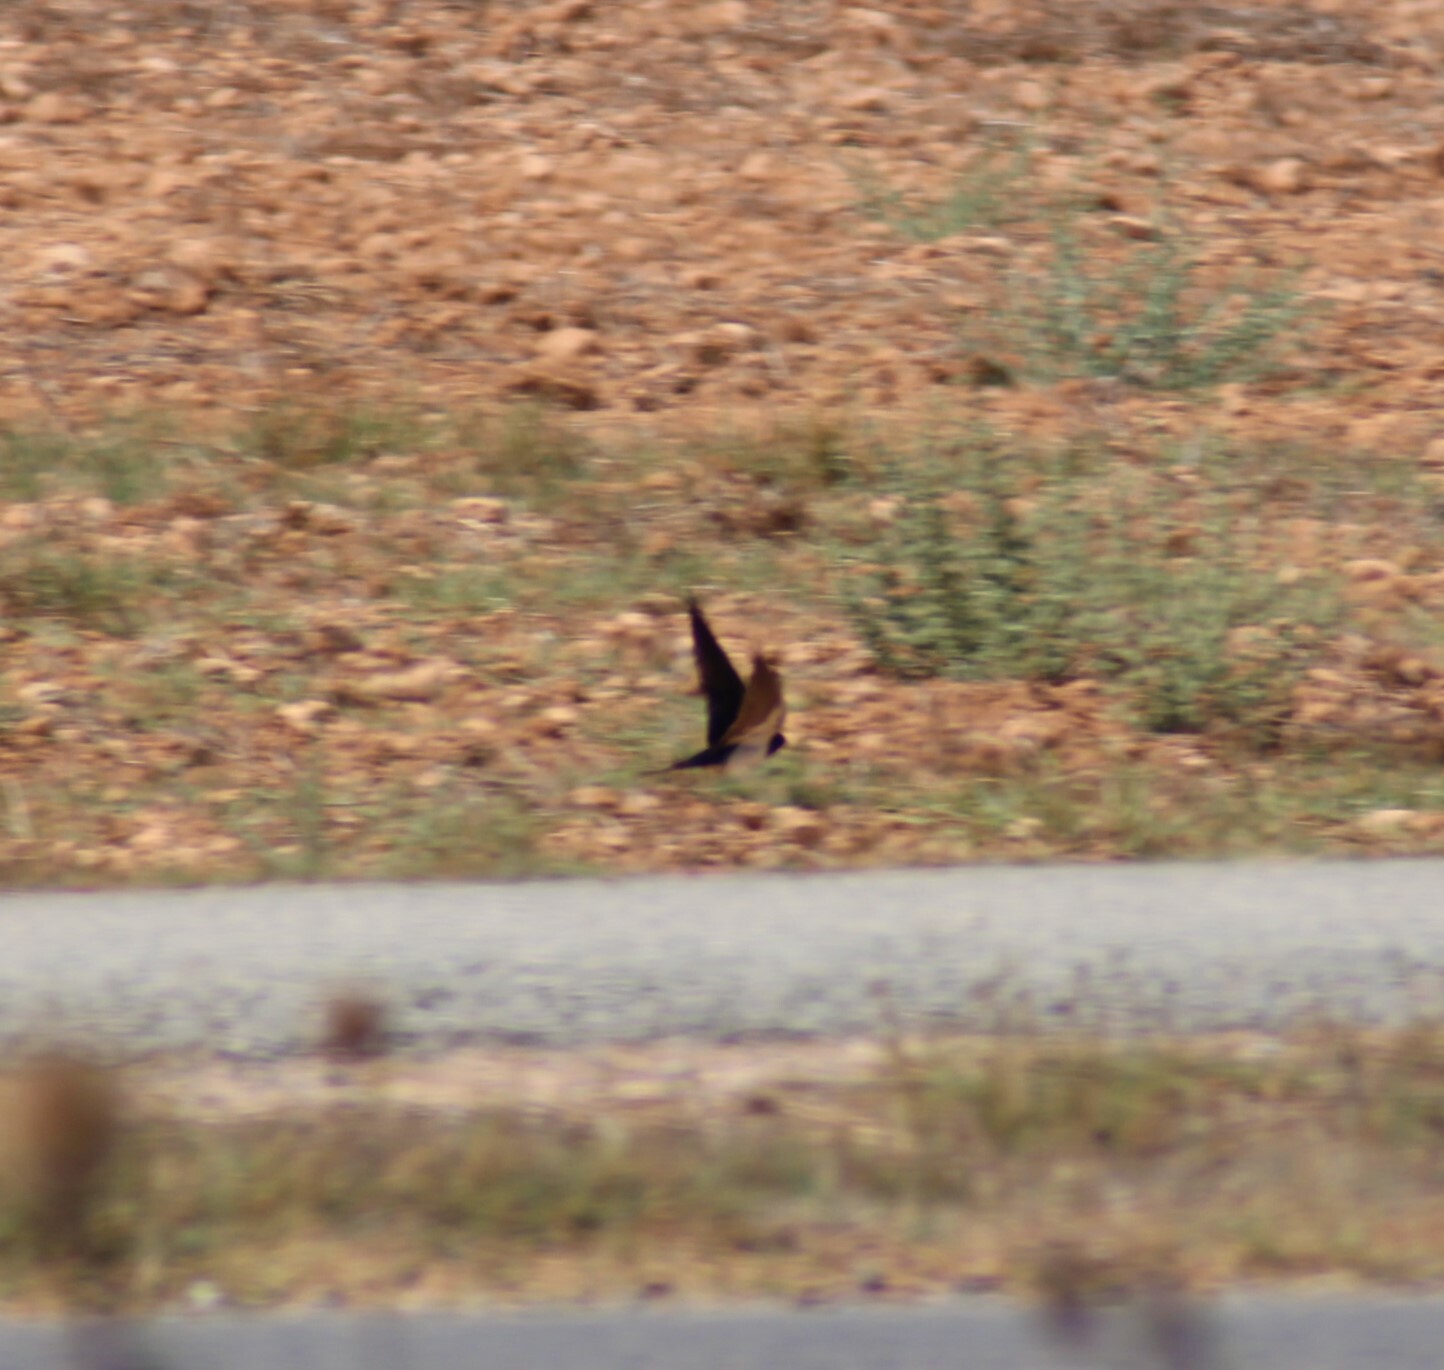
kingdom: Animalia
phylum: Chordata
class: Aves
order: Passeriformes
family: Hirundinidae
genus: Hirundo
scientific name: Hirundo rustica
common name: Barn swallow
